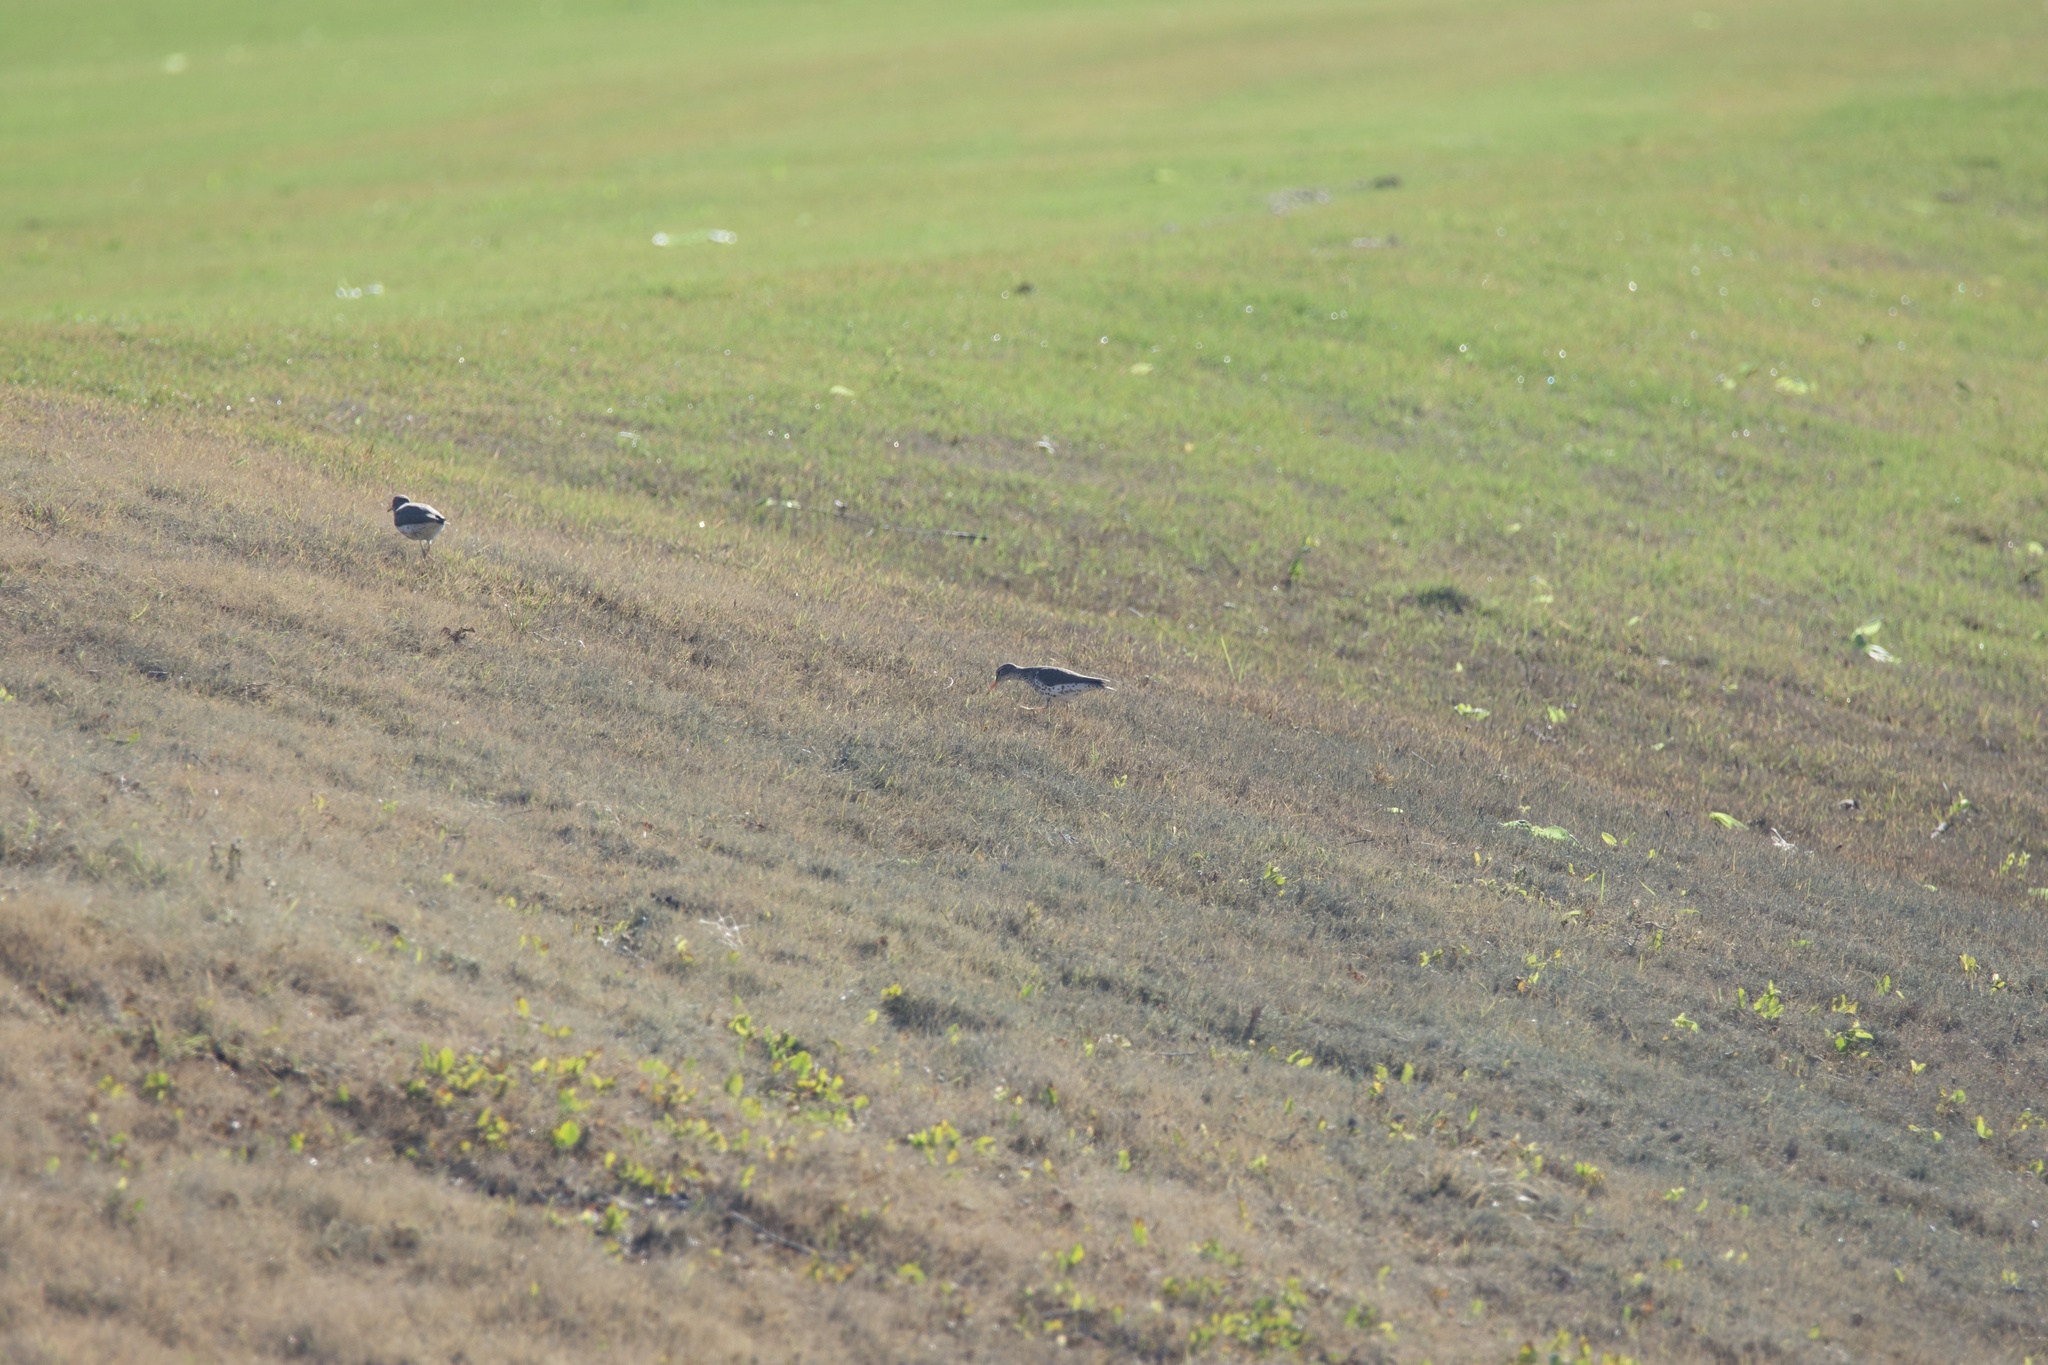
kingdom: Animalia
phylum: Chordata
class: Aves
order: Charadriiformes
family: Scolopacidae
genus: Actitis
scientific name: Actitis macularius
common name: Spotted sandpiper
